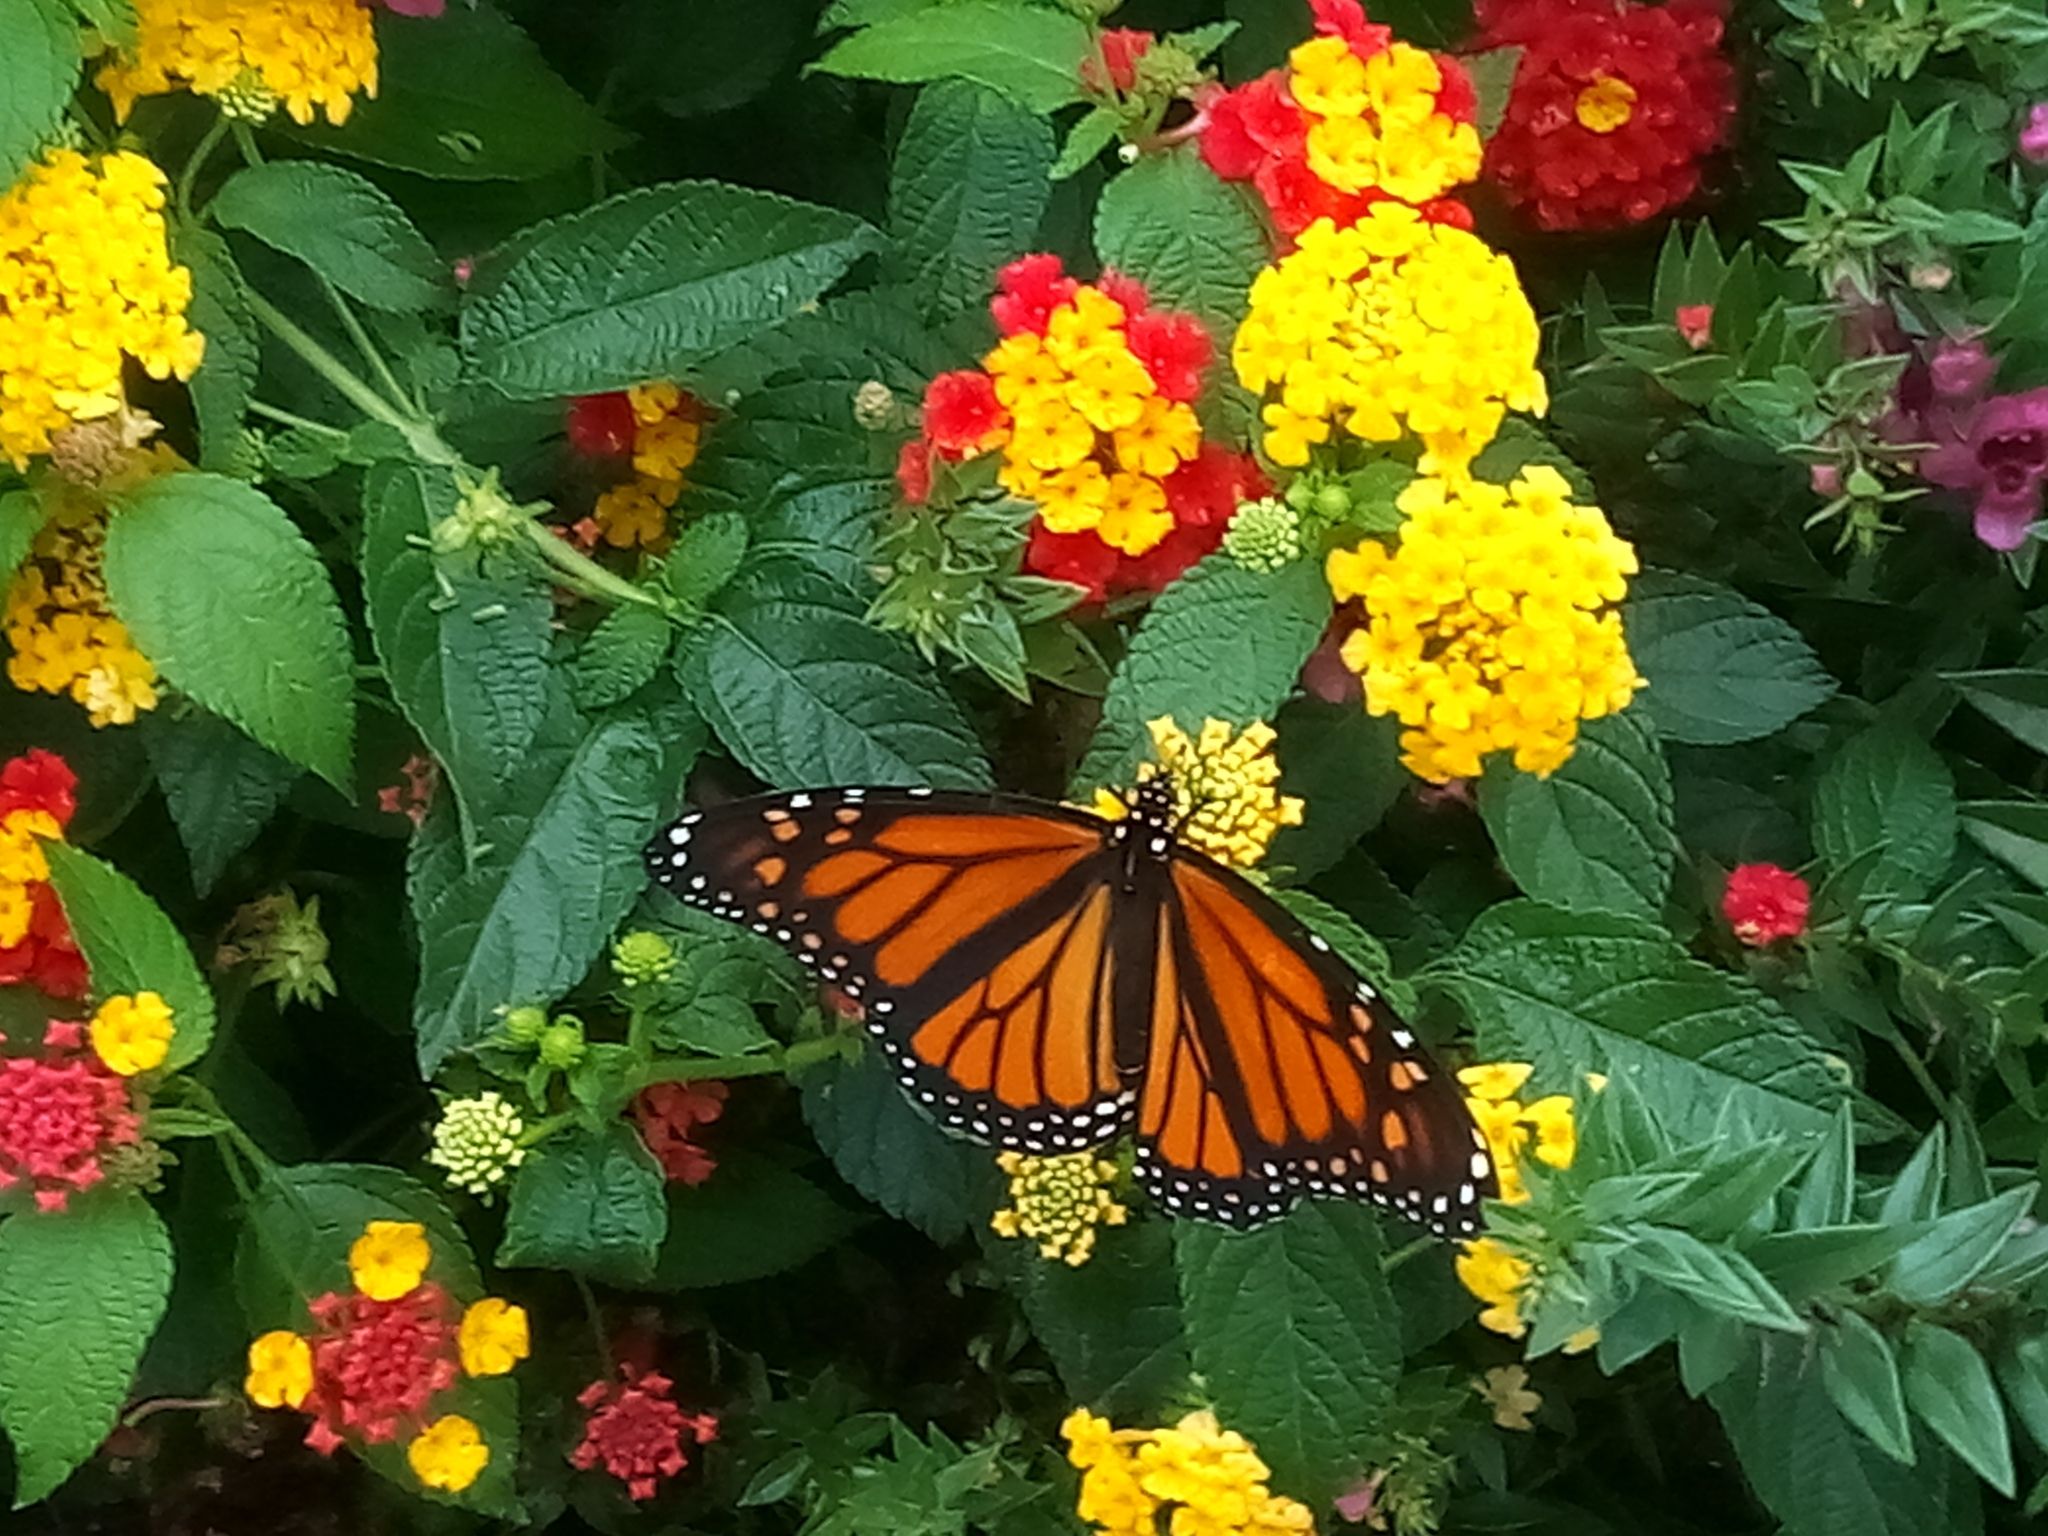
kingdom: Animalia
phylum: Arthropoda
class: Insecta
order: Lepidoptera
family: Nymphalidae
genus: Danaus
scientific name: Danaus plexippus
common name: Monarch
